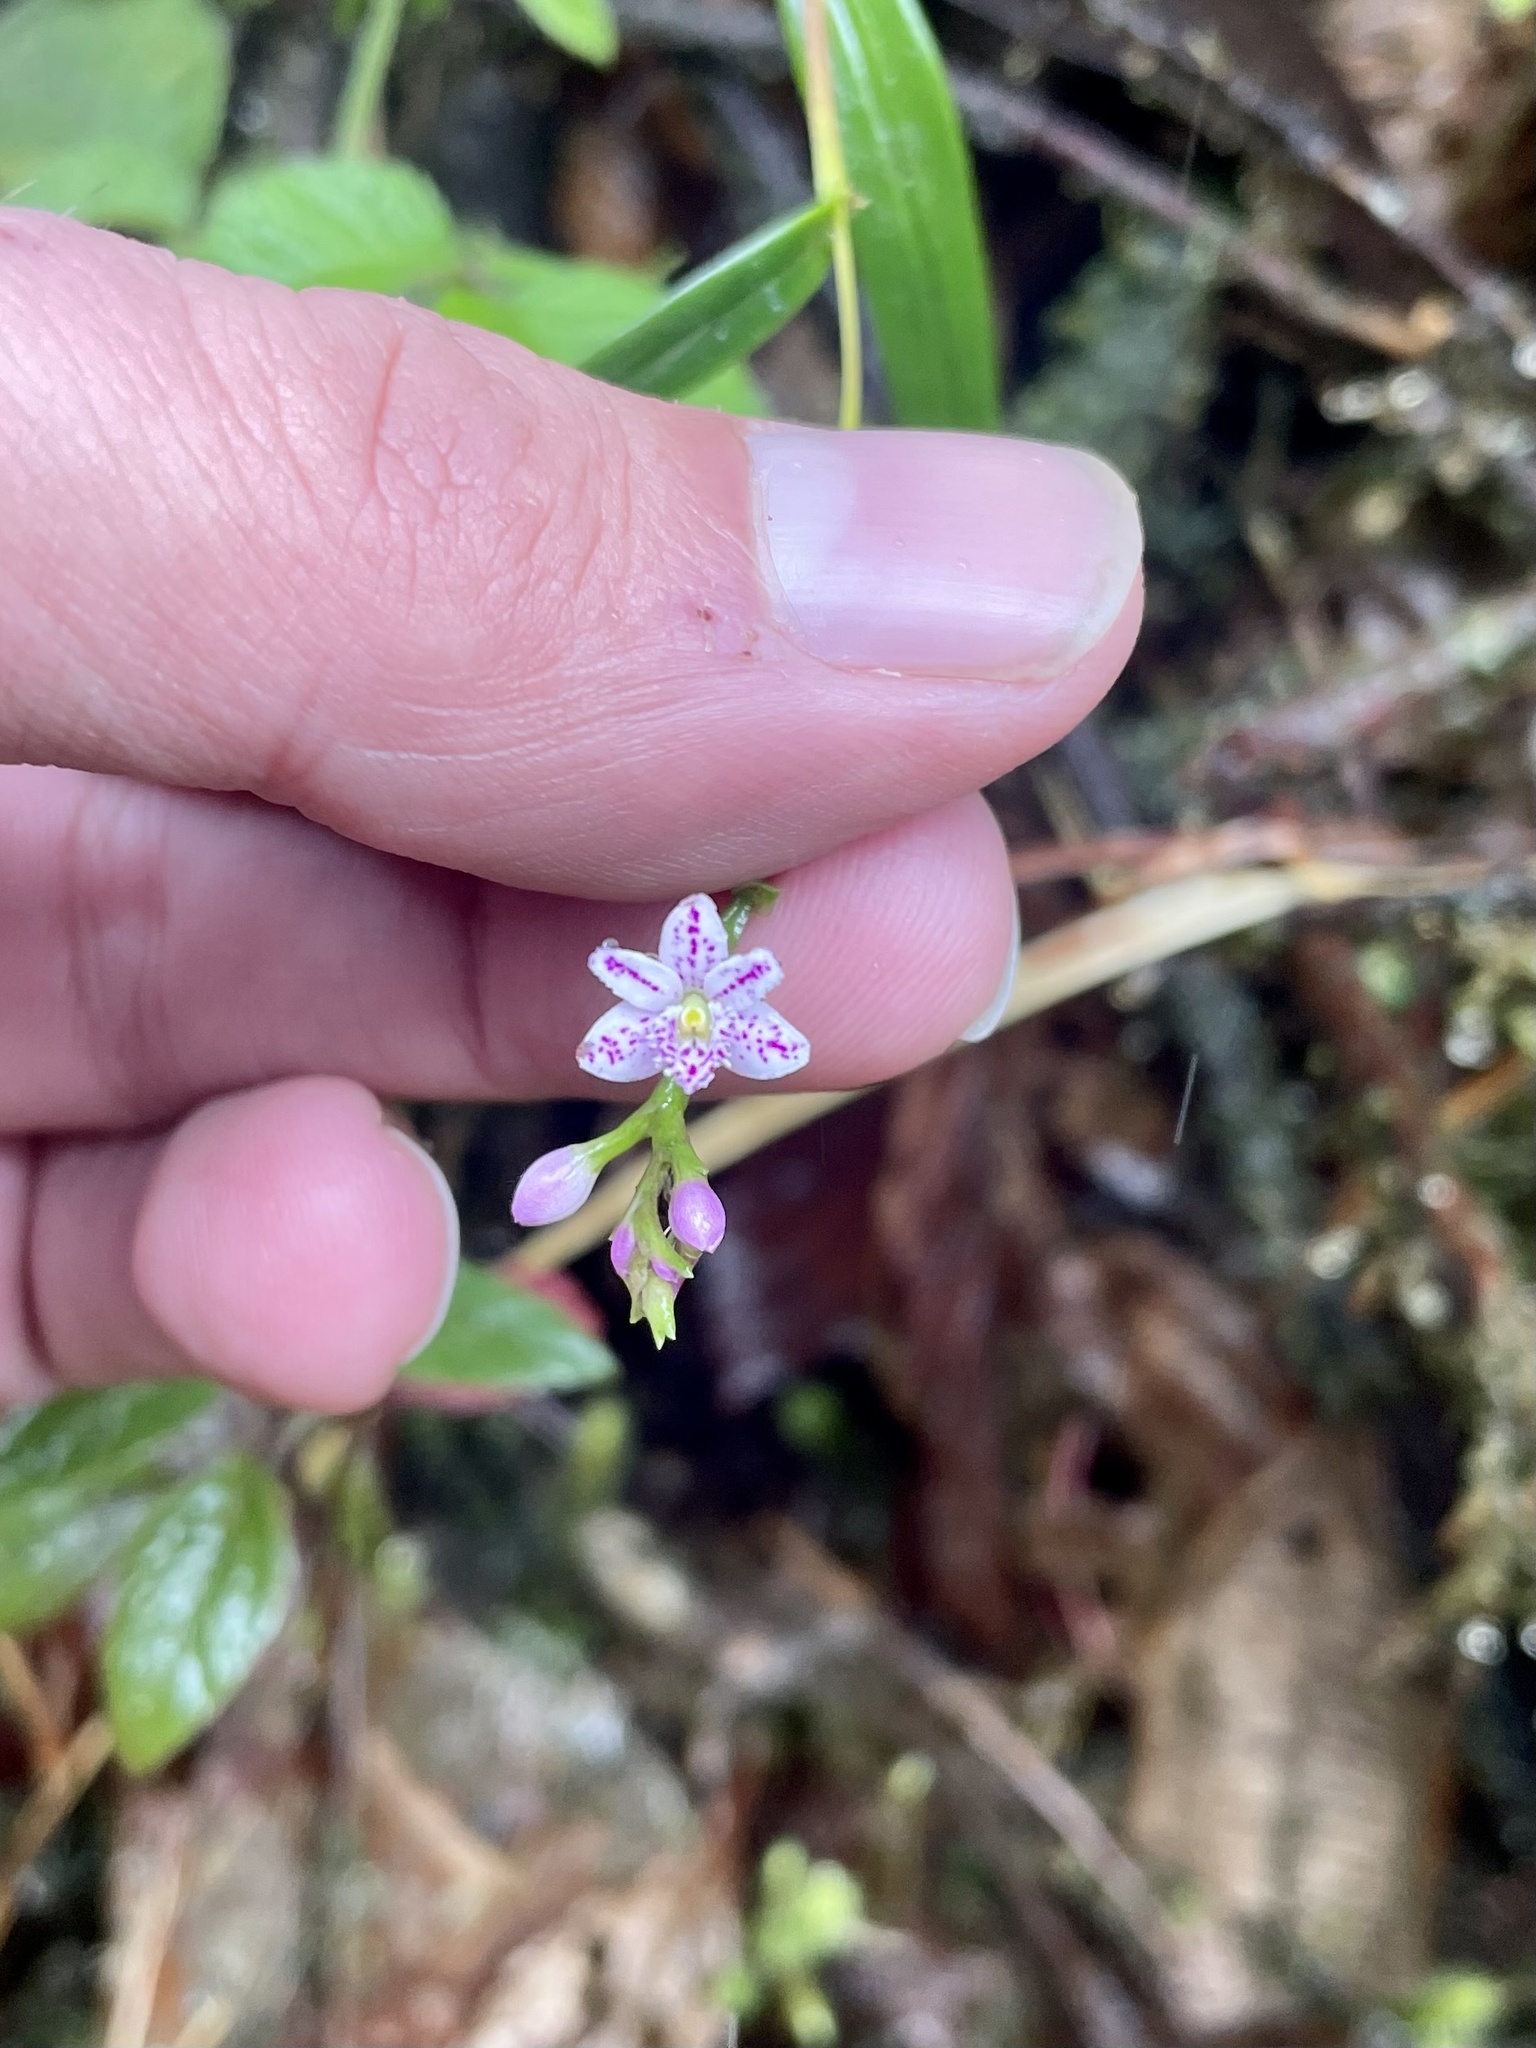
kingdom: Plantae
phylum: Tracheophyta
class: Liliopsida
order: Asparagales
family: Orchidaceae
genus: Epidendrum
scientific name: Epidendrum fimbriatum
